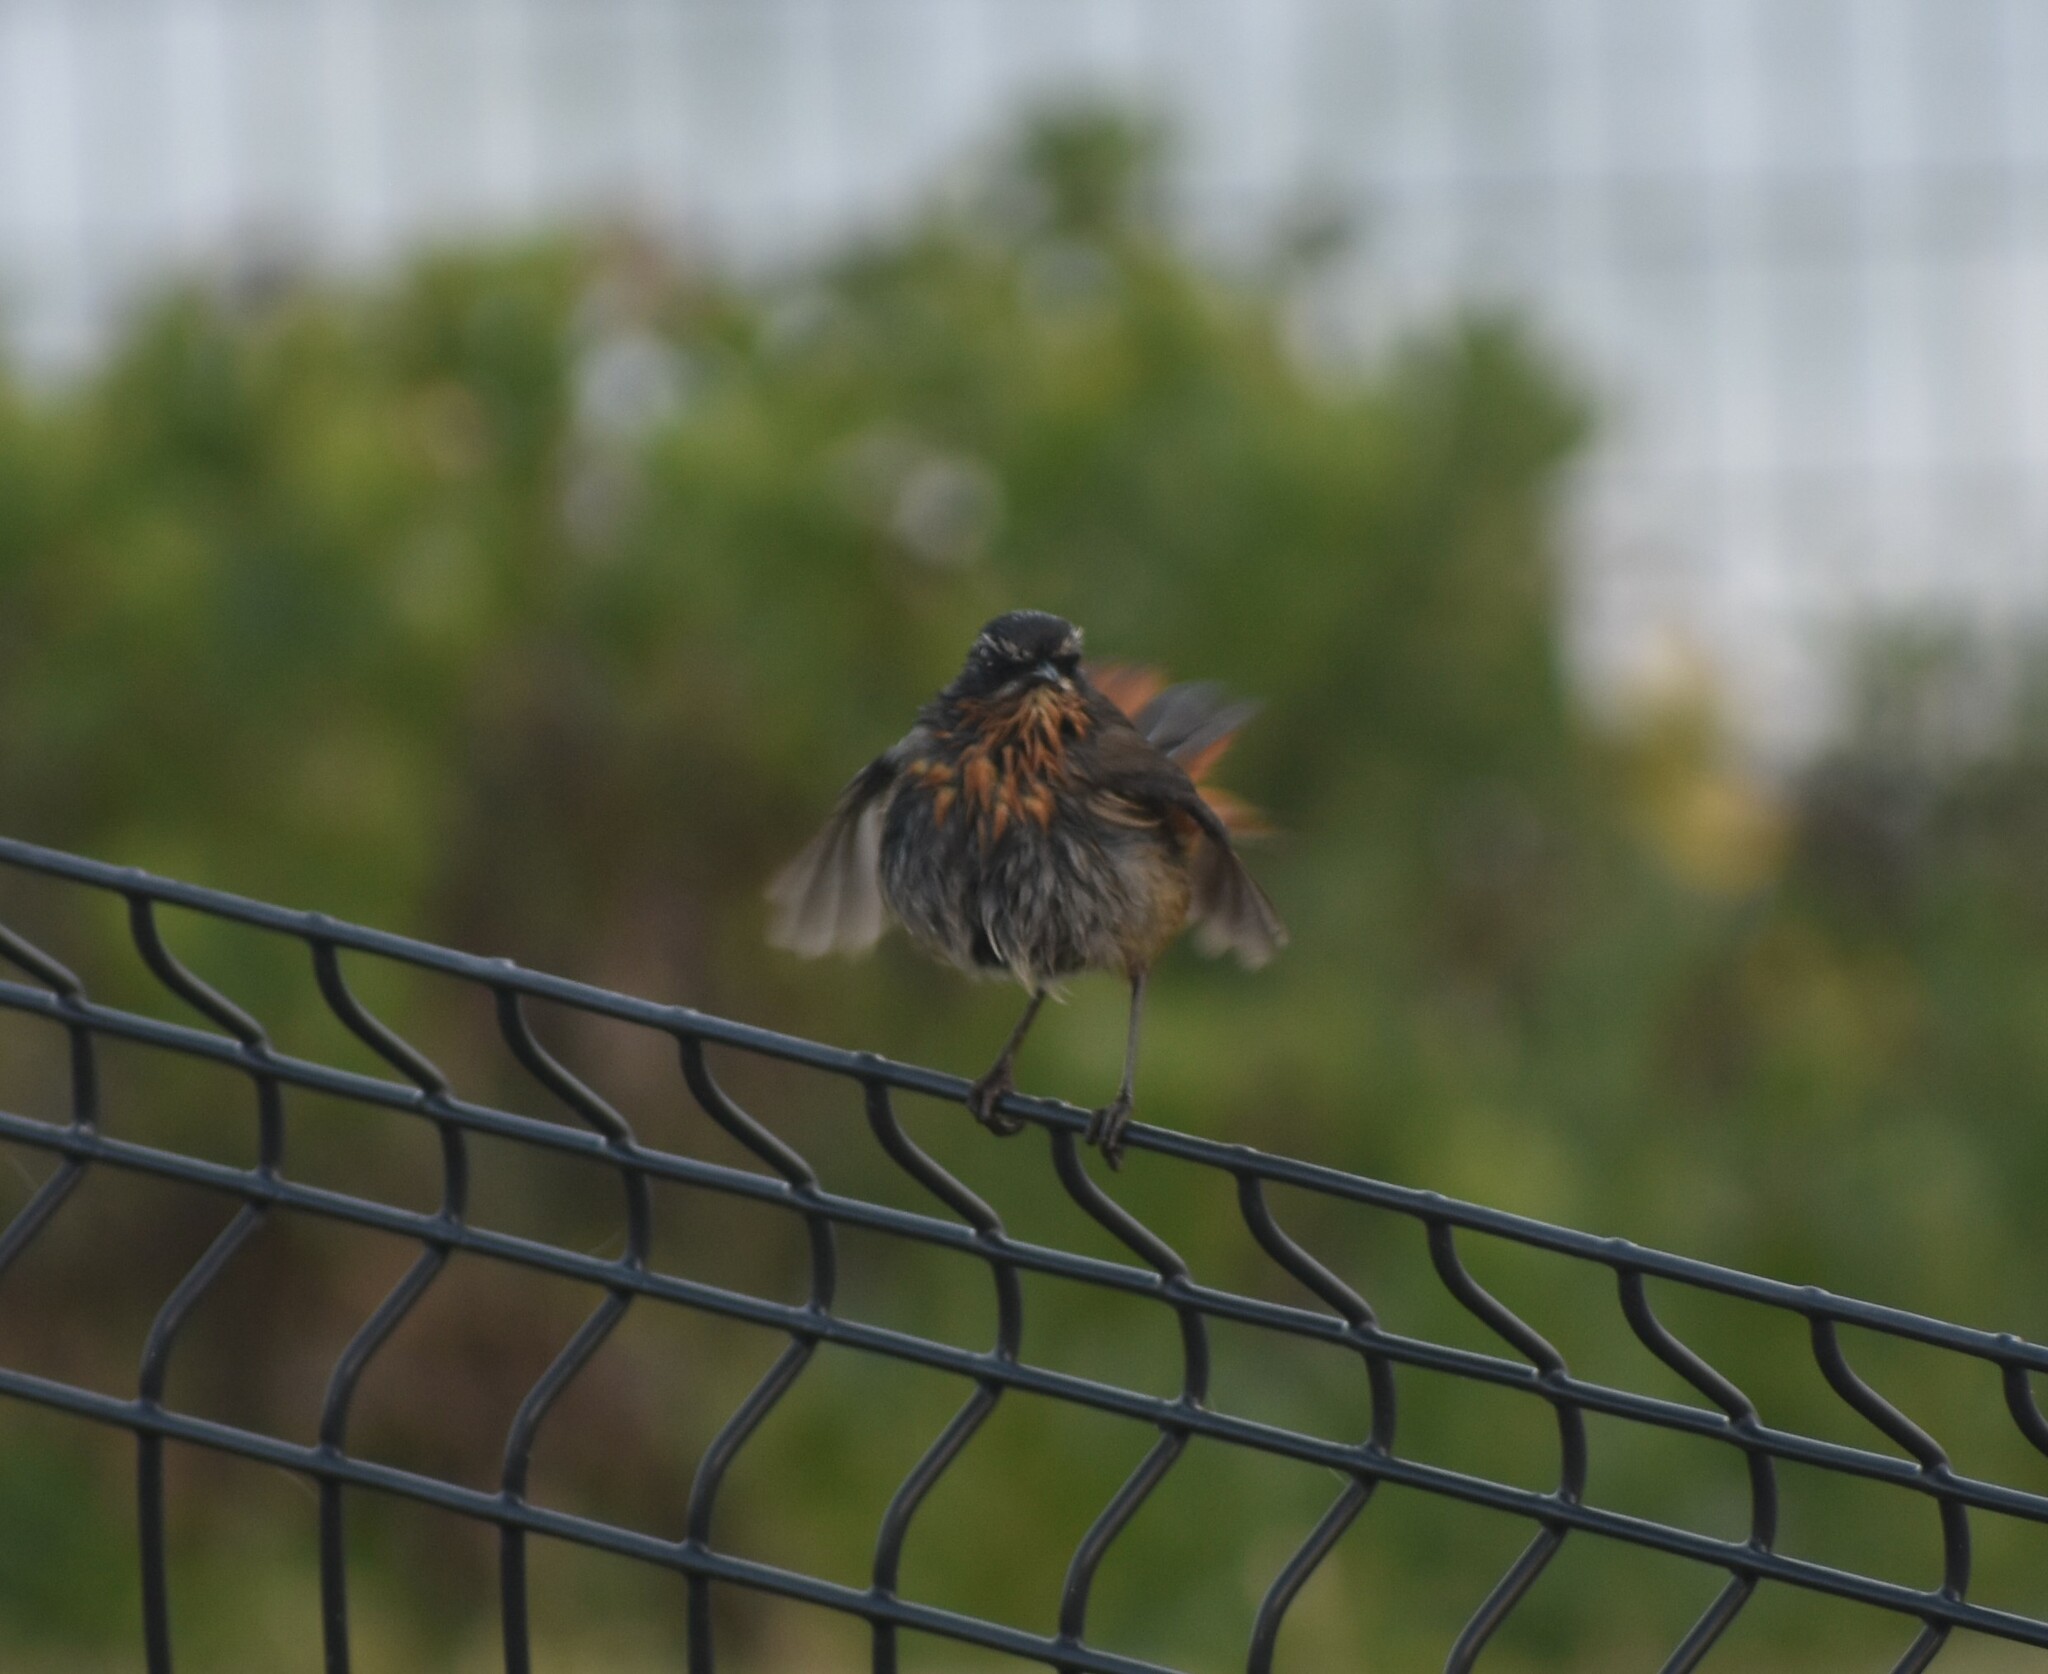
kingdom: Animalia
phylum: Chordata
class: Aves
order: Passeriformes
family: Muscicapidae
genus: Cossypha
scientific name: Cossypha caffra
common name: Cape robin-chat
